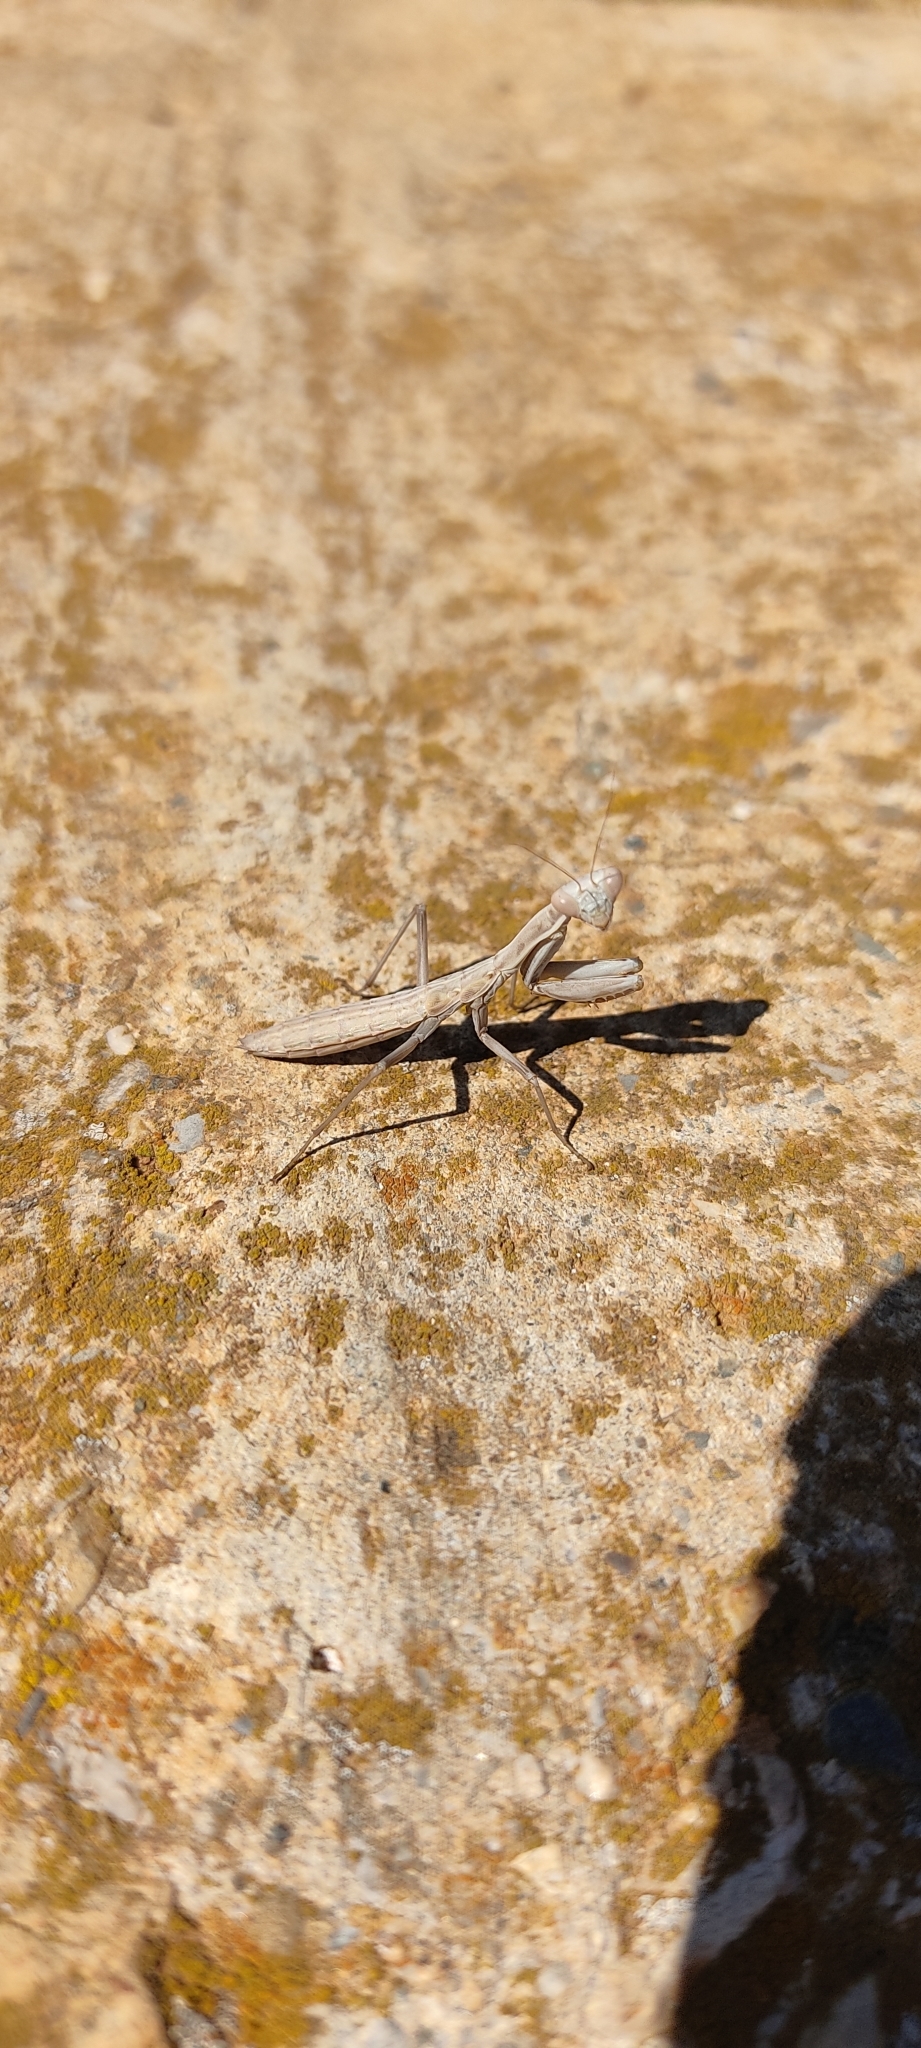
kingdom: Animalia
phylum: Arthropoda
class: Insecta
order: Mantodea
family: Eremiaphilidae
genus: Iris
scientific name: Iris oratoria
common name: Mediterranean mantis
